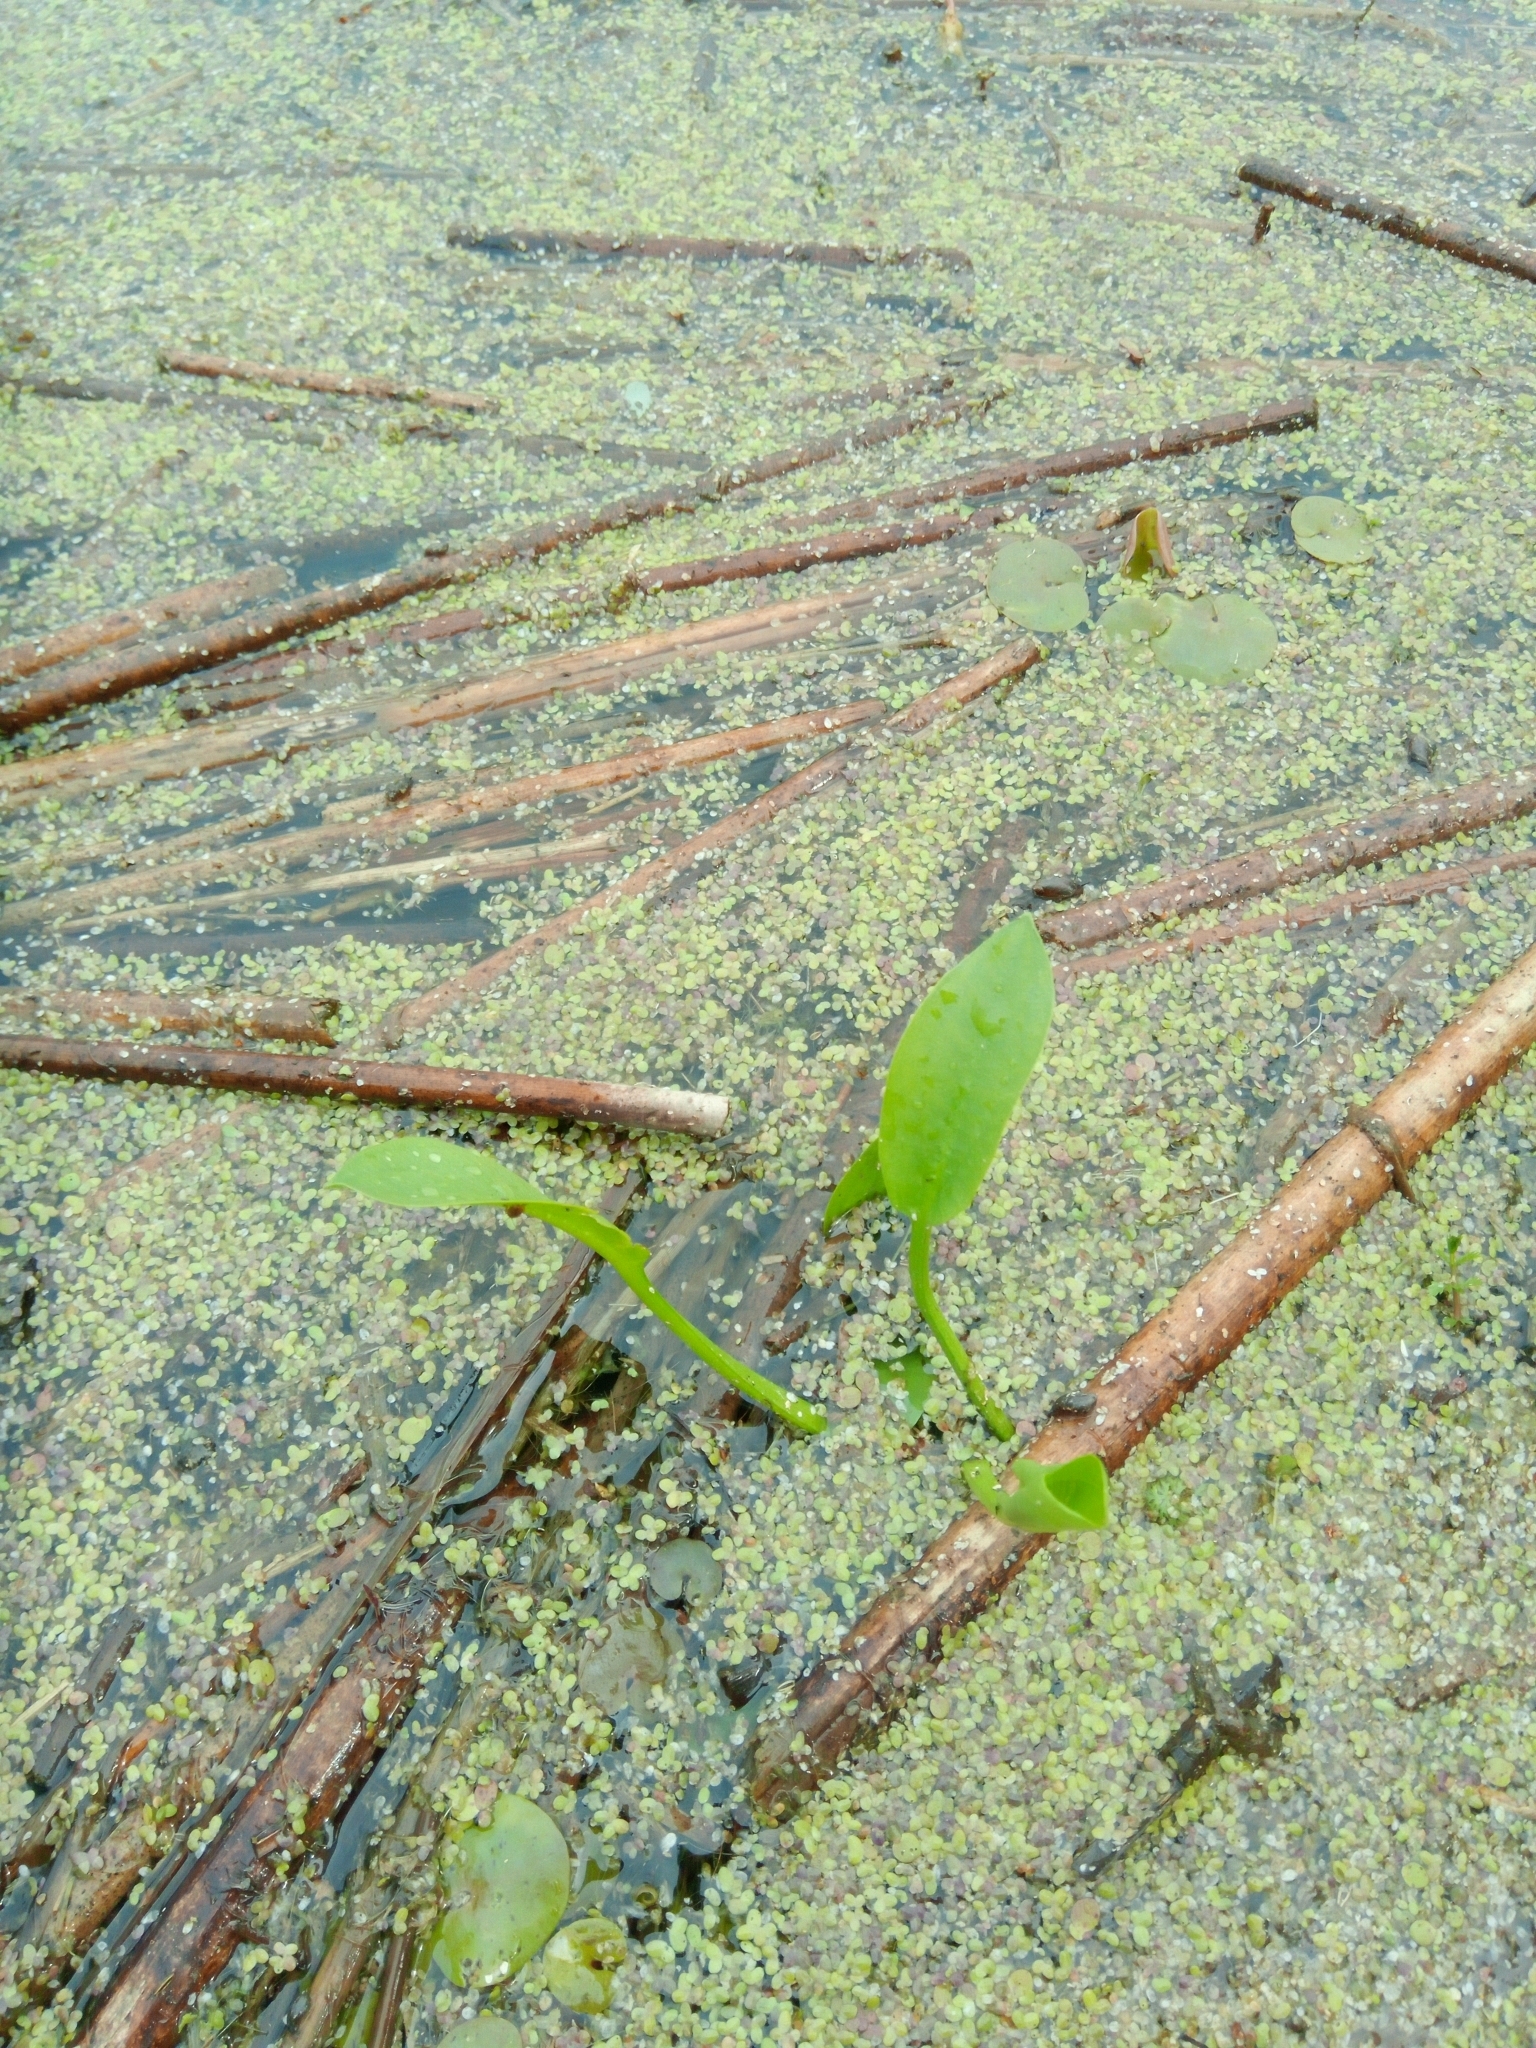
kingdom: Plantae
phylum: Tracheophyta
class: Liliopsida
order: Alismatales
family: Alismataceae
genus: Alisma
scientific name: Alisma plantago-aquatica
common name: Water-plantain
